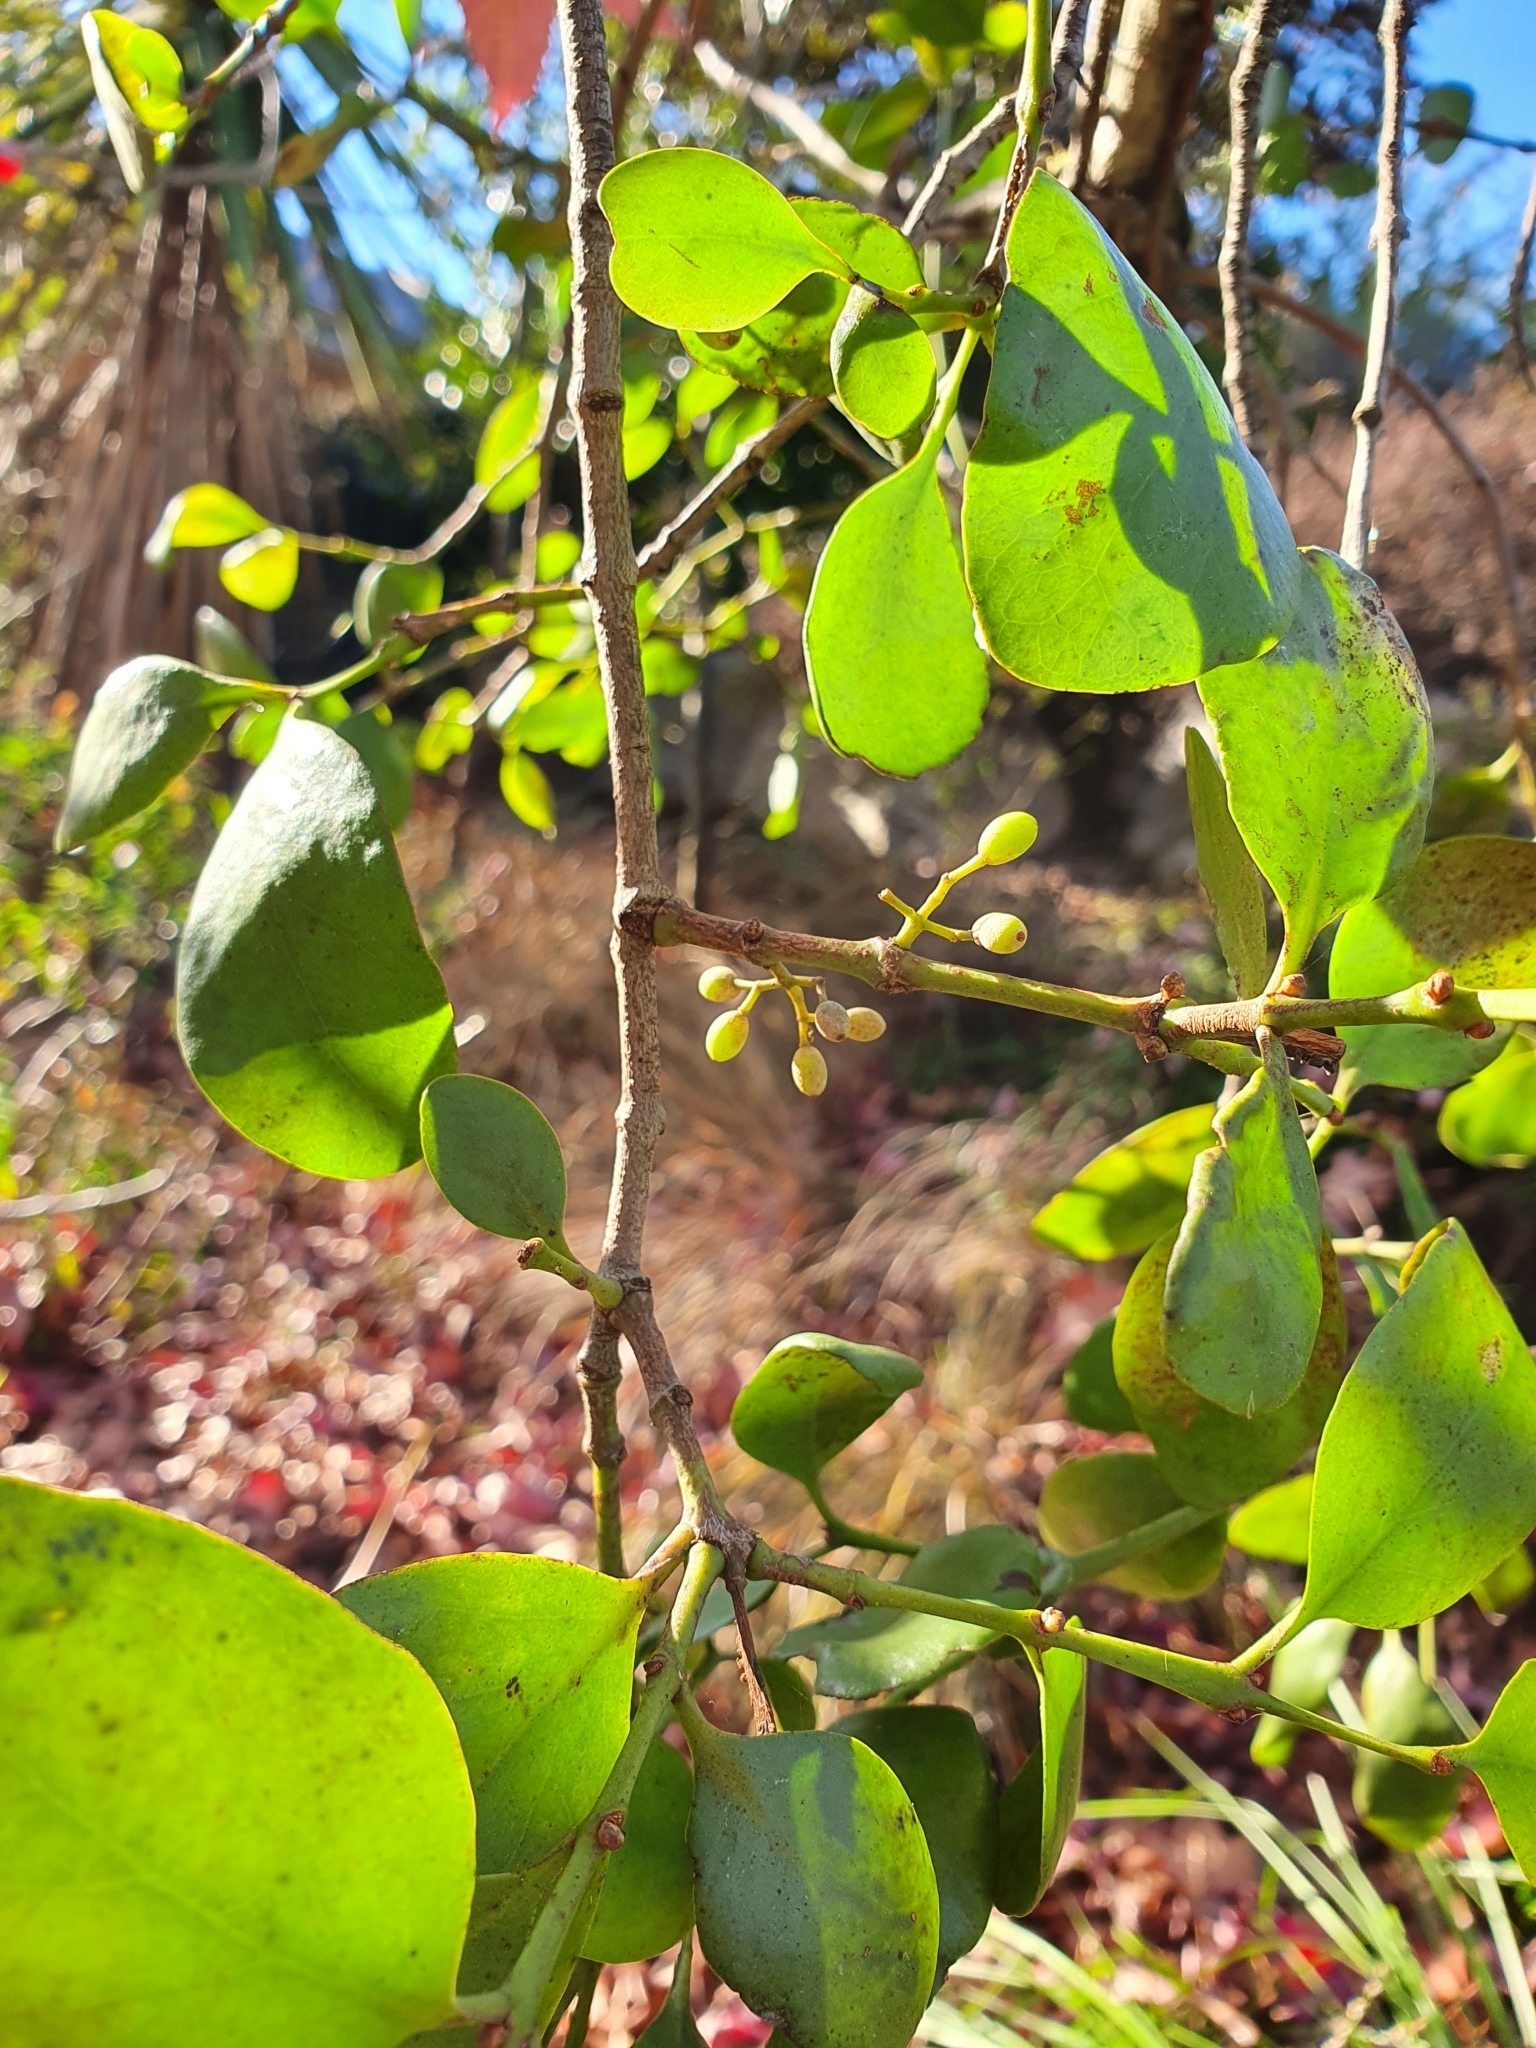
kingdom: Plantae
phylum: Tracheophyta
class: Magnoliopsida
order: Santalales
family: Loranthaceae
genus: Ileostylus
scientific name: Ileostylus micranthus
